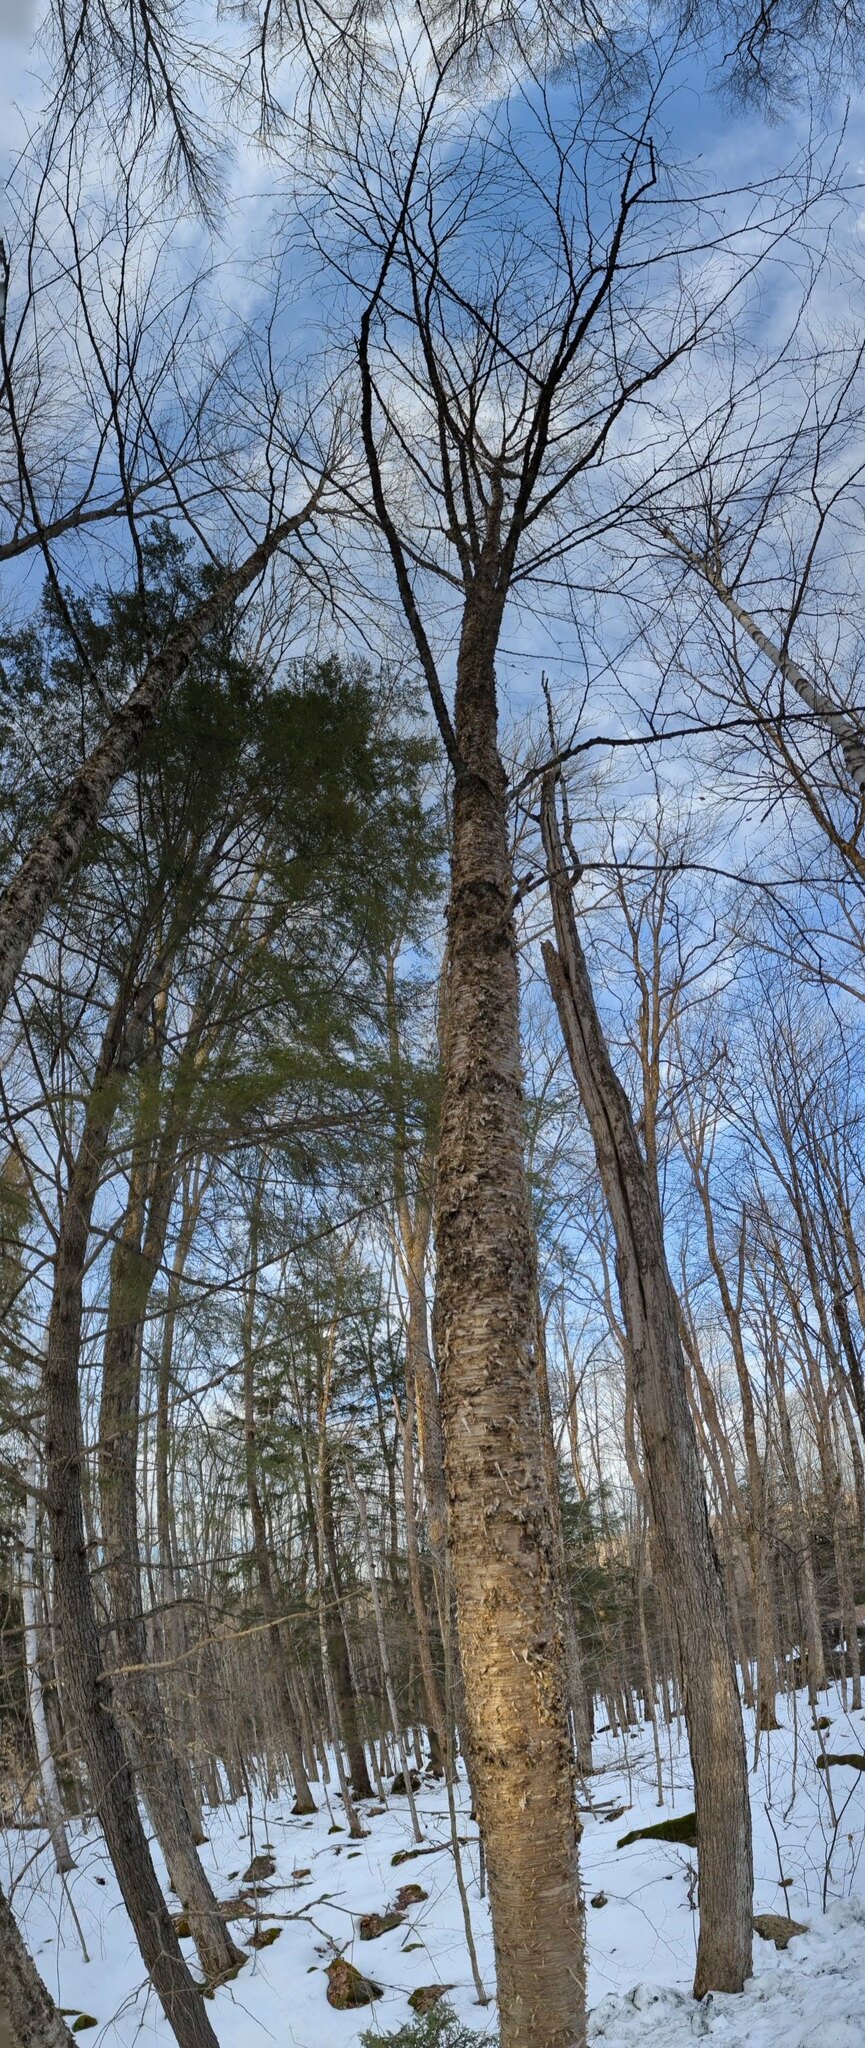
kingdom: Plantae
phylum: Tracheophyta
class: Magnoliopsida
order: Fagales
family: Betulaceae
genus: Betula
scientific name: Betula alleghaniensis
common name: Yellow birch
